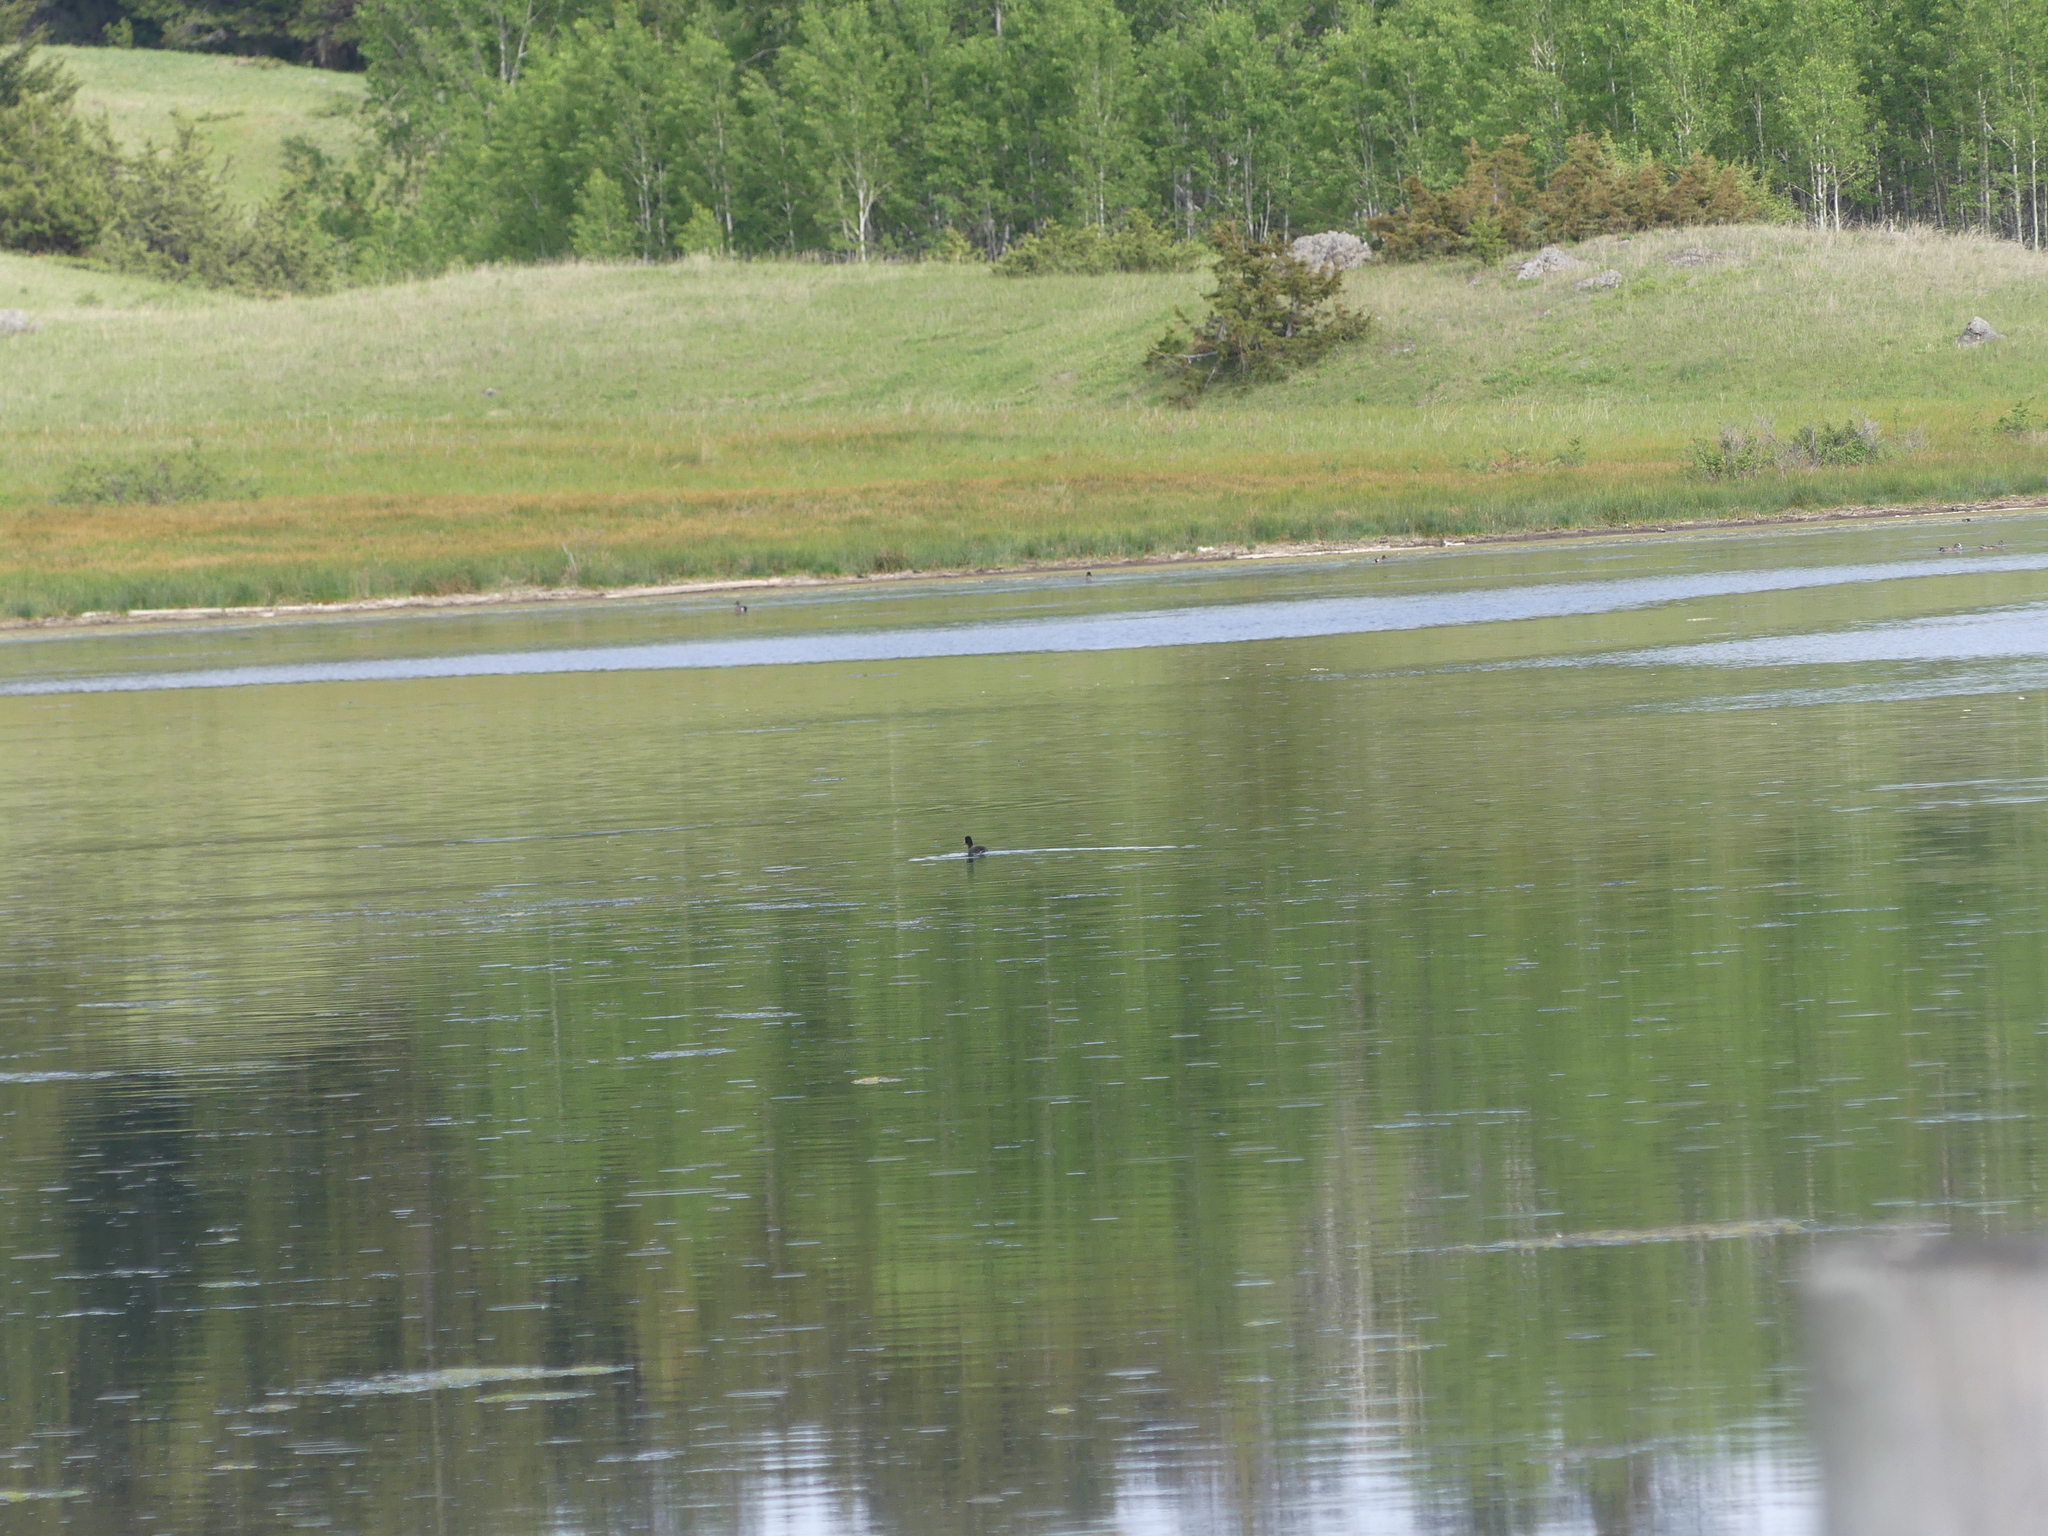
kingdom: Animalia
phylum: Chordata
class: Aves
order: Gruiformes
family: Rallidae
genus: Fulica
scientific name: Fulica americana
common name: American coot
